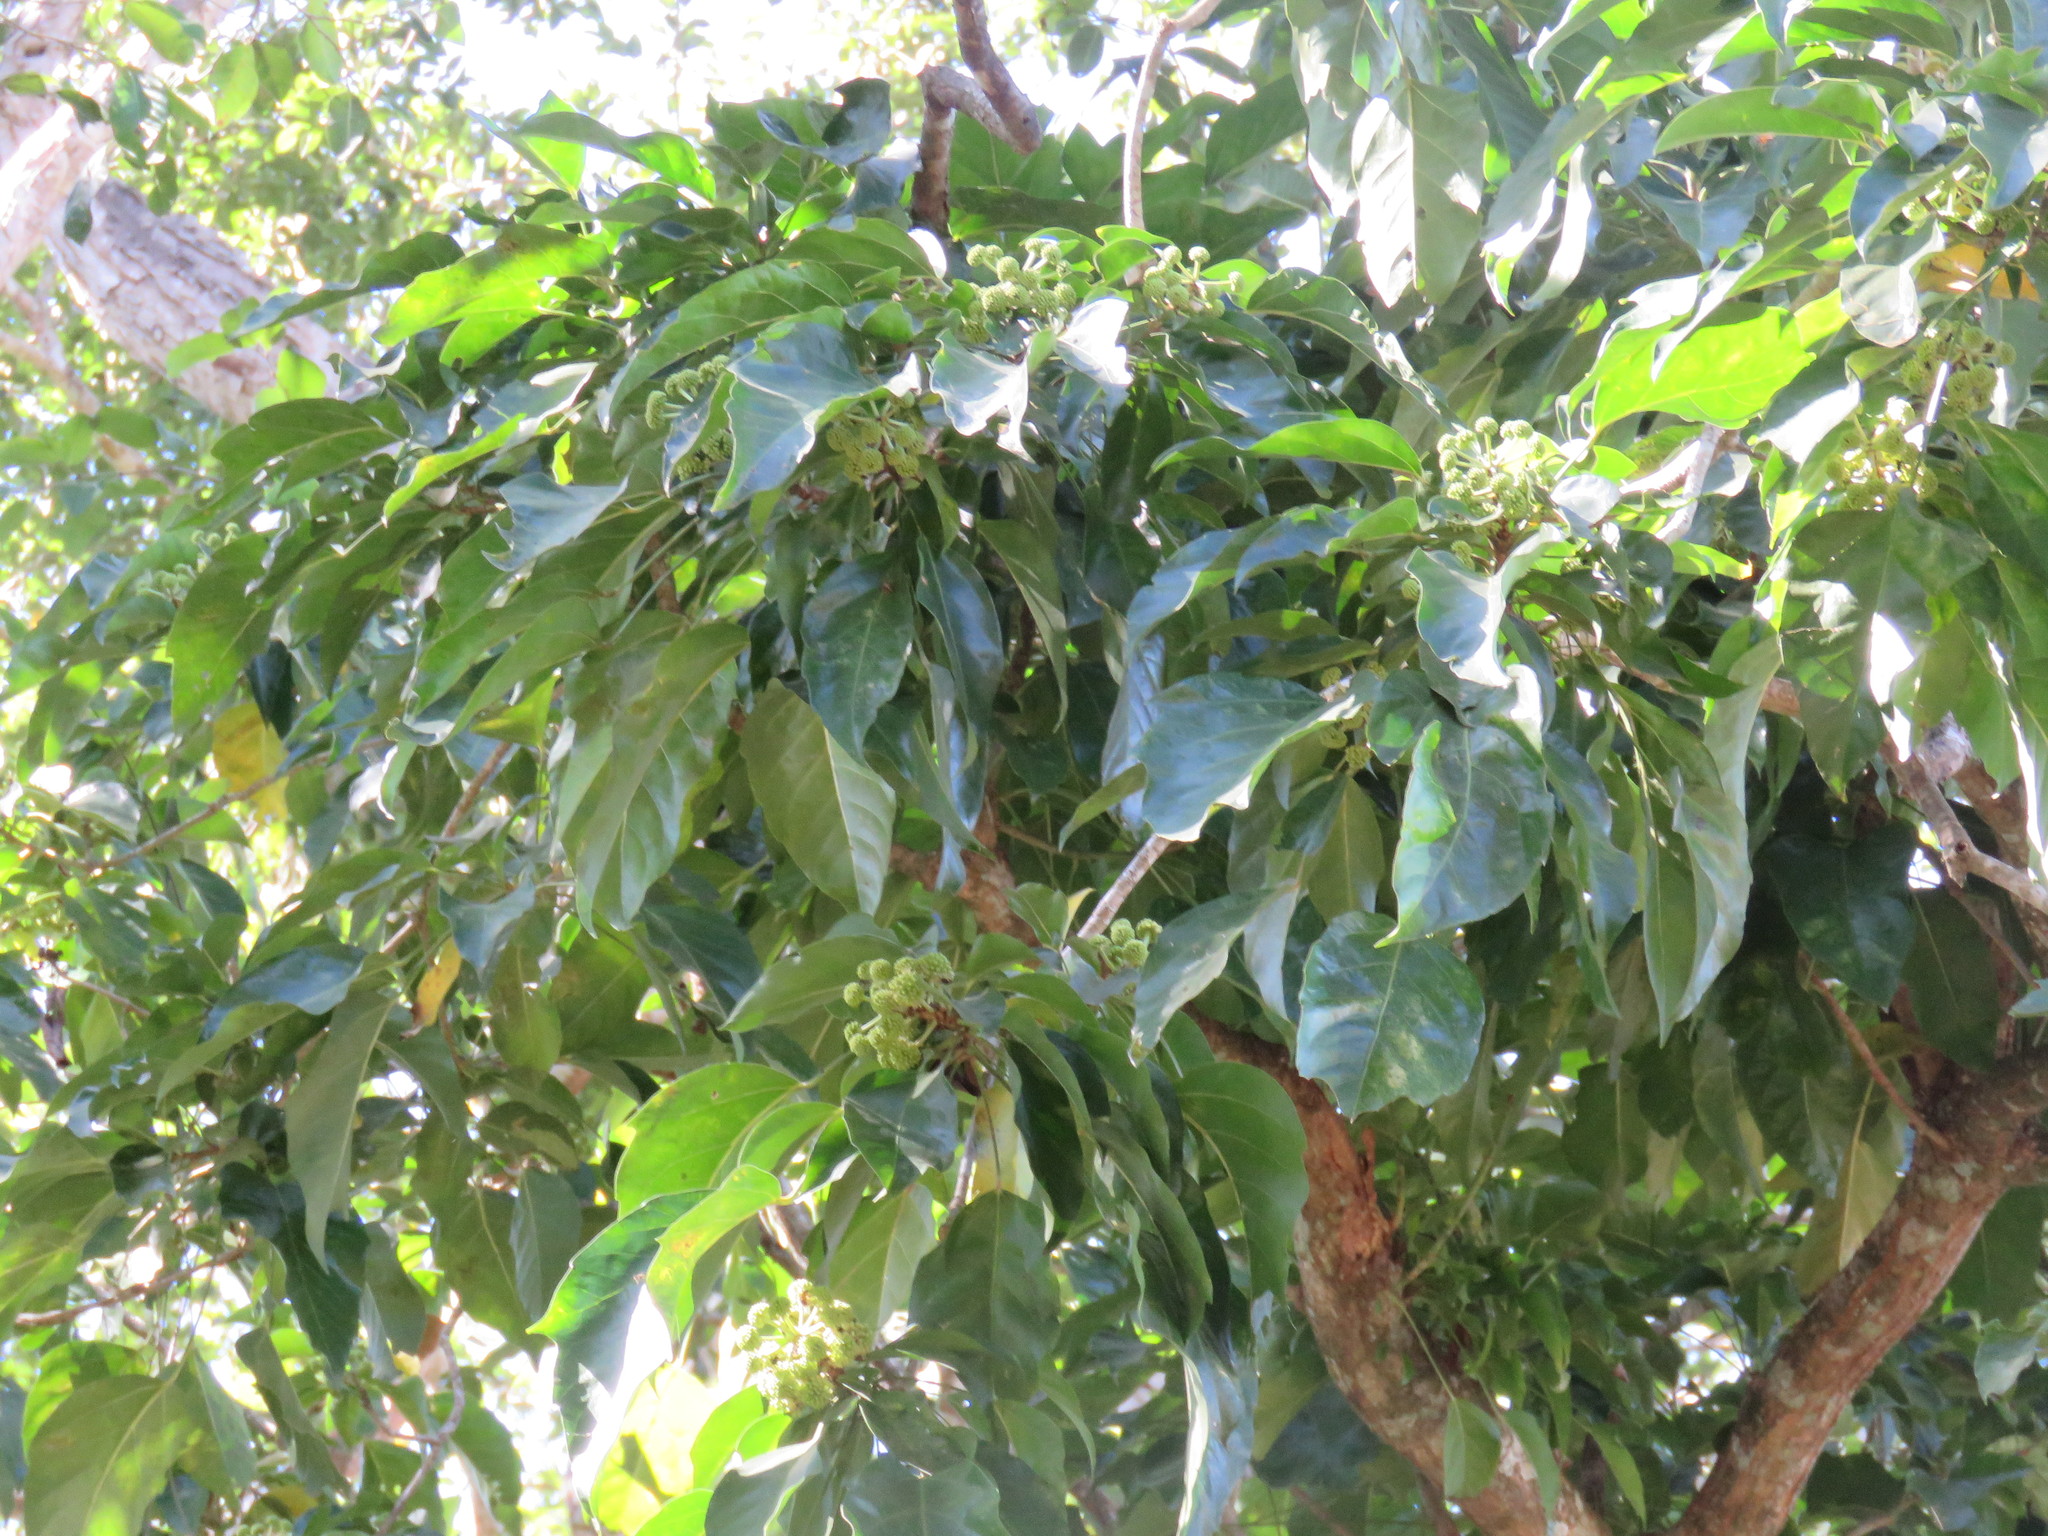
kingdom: Plantae
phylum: Tracheophyta
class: Magnoliopsida
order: Rosales
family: Moraceae
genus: Brosimum
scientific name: Brosimum alicastrum
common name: Breadnut
